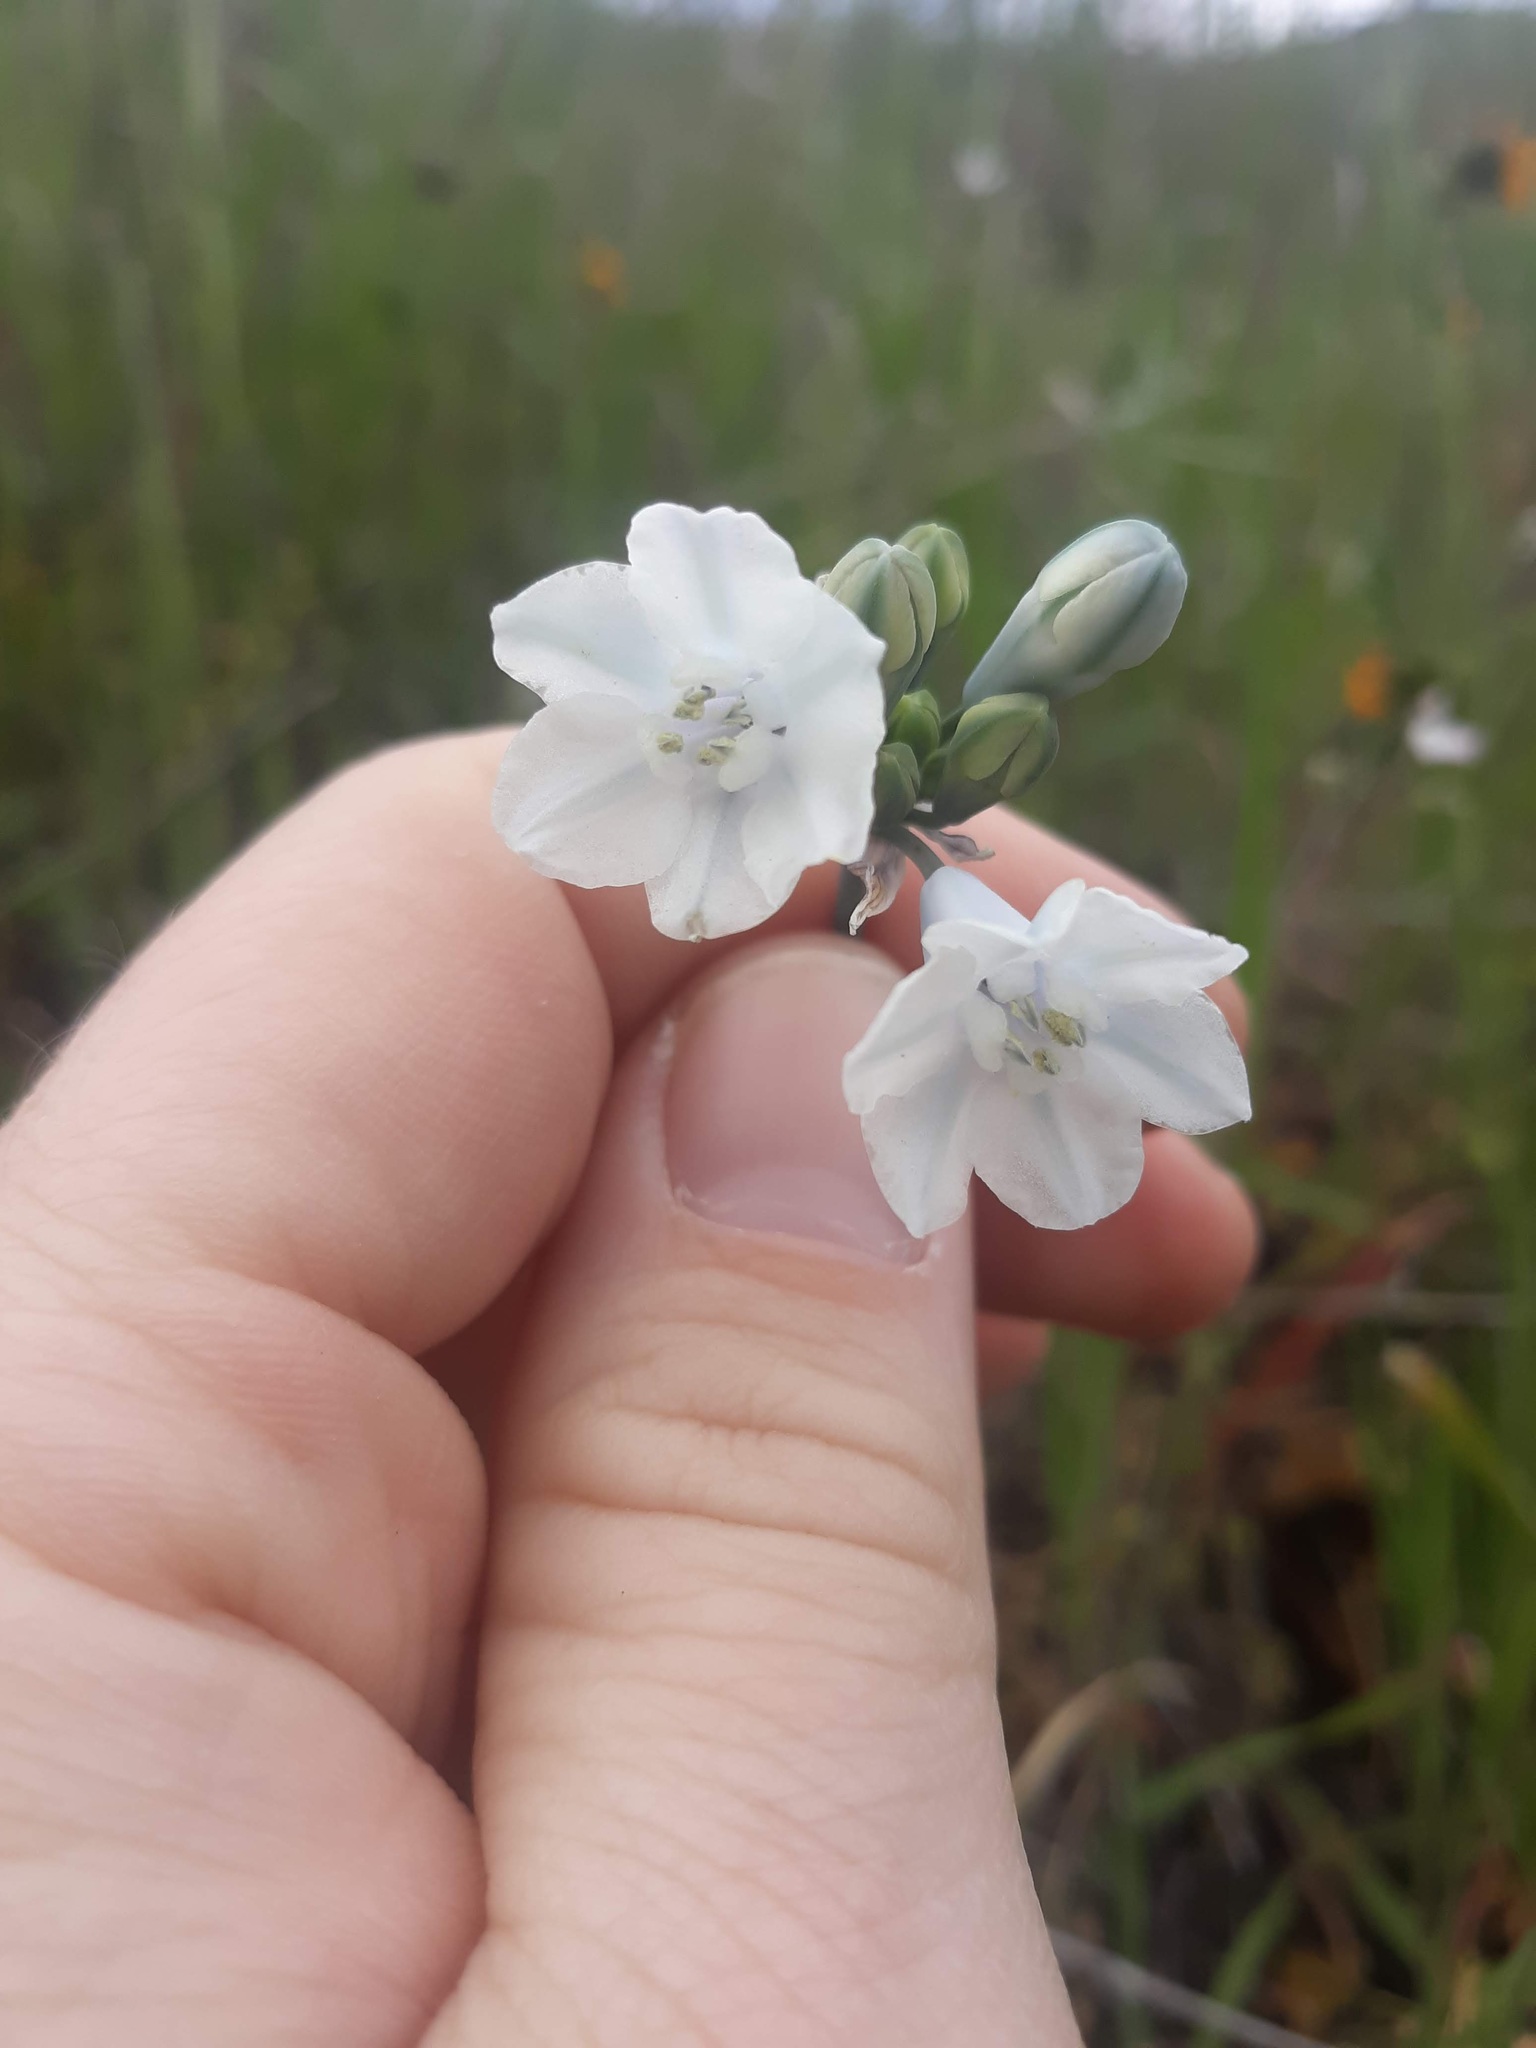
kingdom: Plantae
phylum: Tracheophyta
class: Liliopsida
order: Asparagales
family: Asparagaceae
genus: Triteleia
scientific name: Triteleia grandiflora
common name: Wild hyacinth
